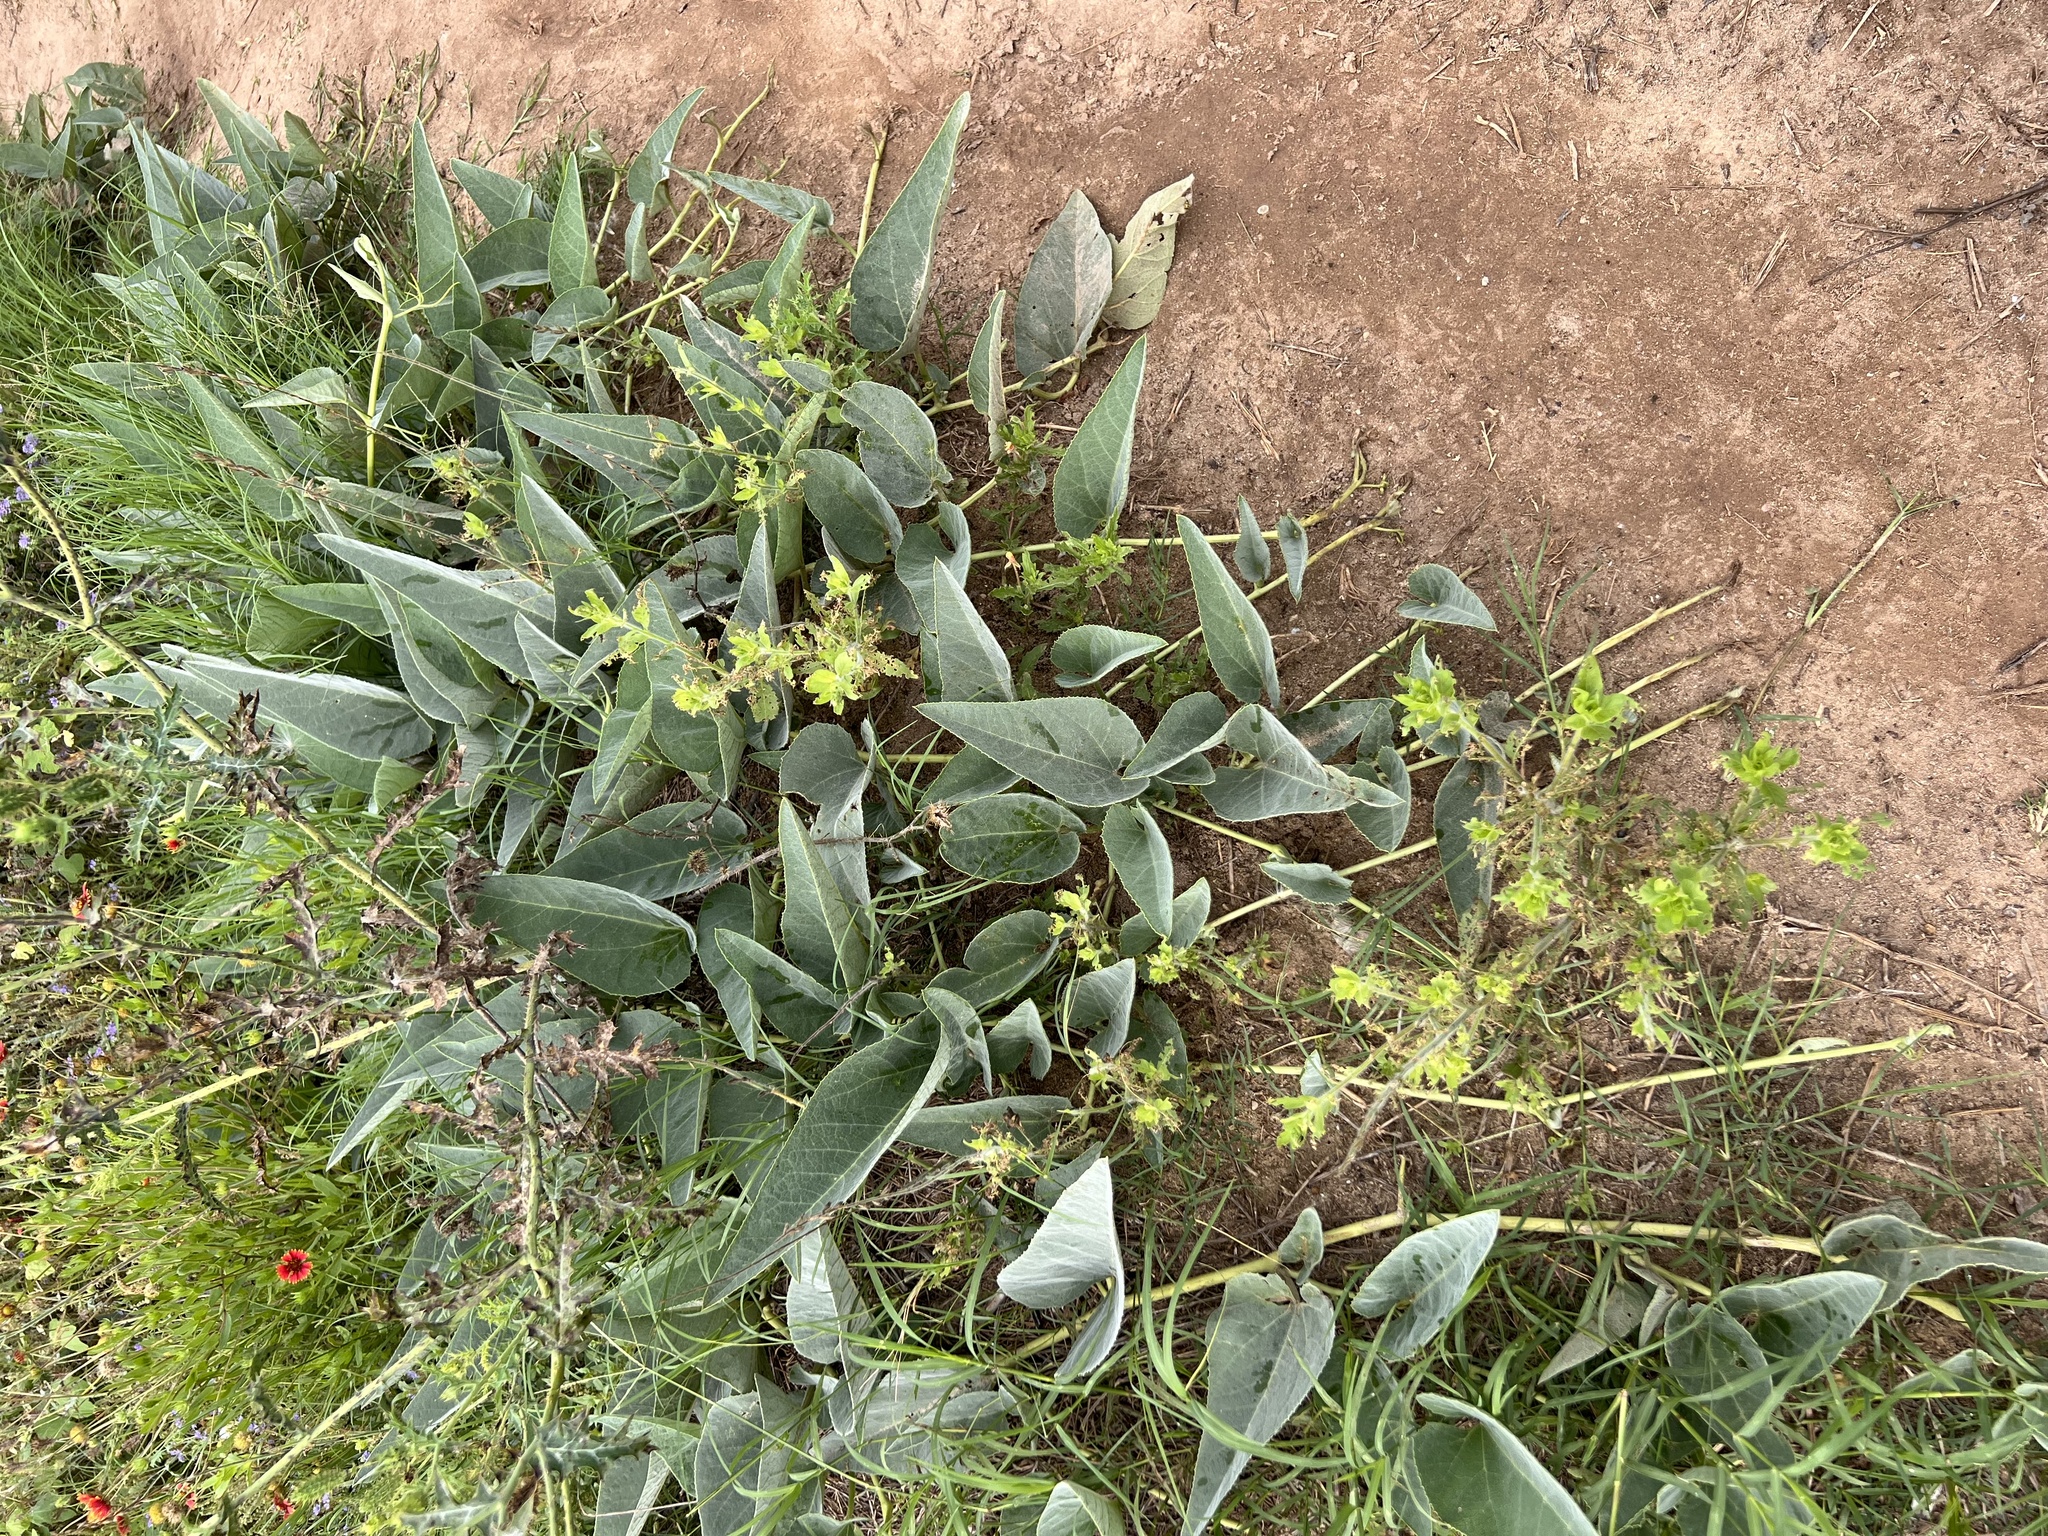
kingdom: Plantae
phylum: Tracheophyta
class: Magnoliopsida
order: Cucurbitales
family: Cucurbitaceae
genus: Cucurbita
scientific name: Cucurbita foetidissima
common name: Buffalo gourd
